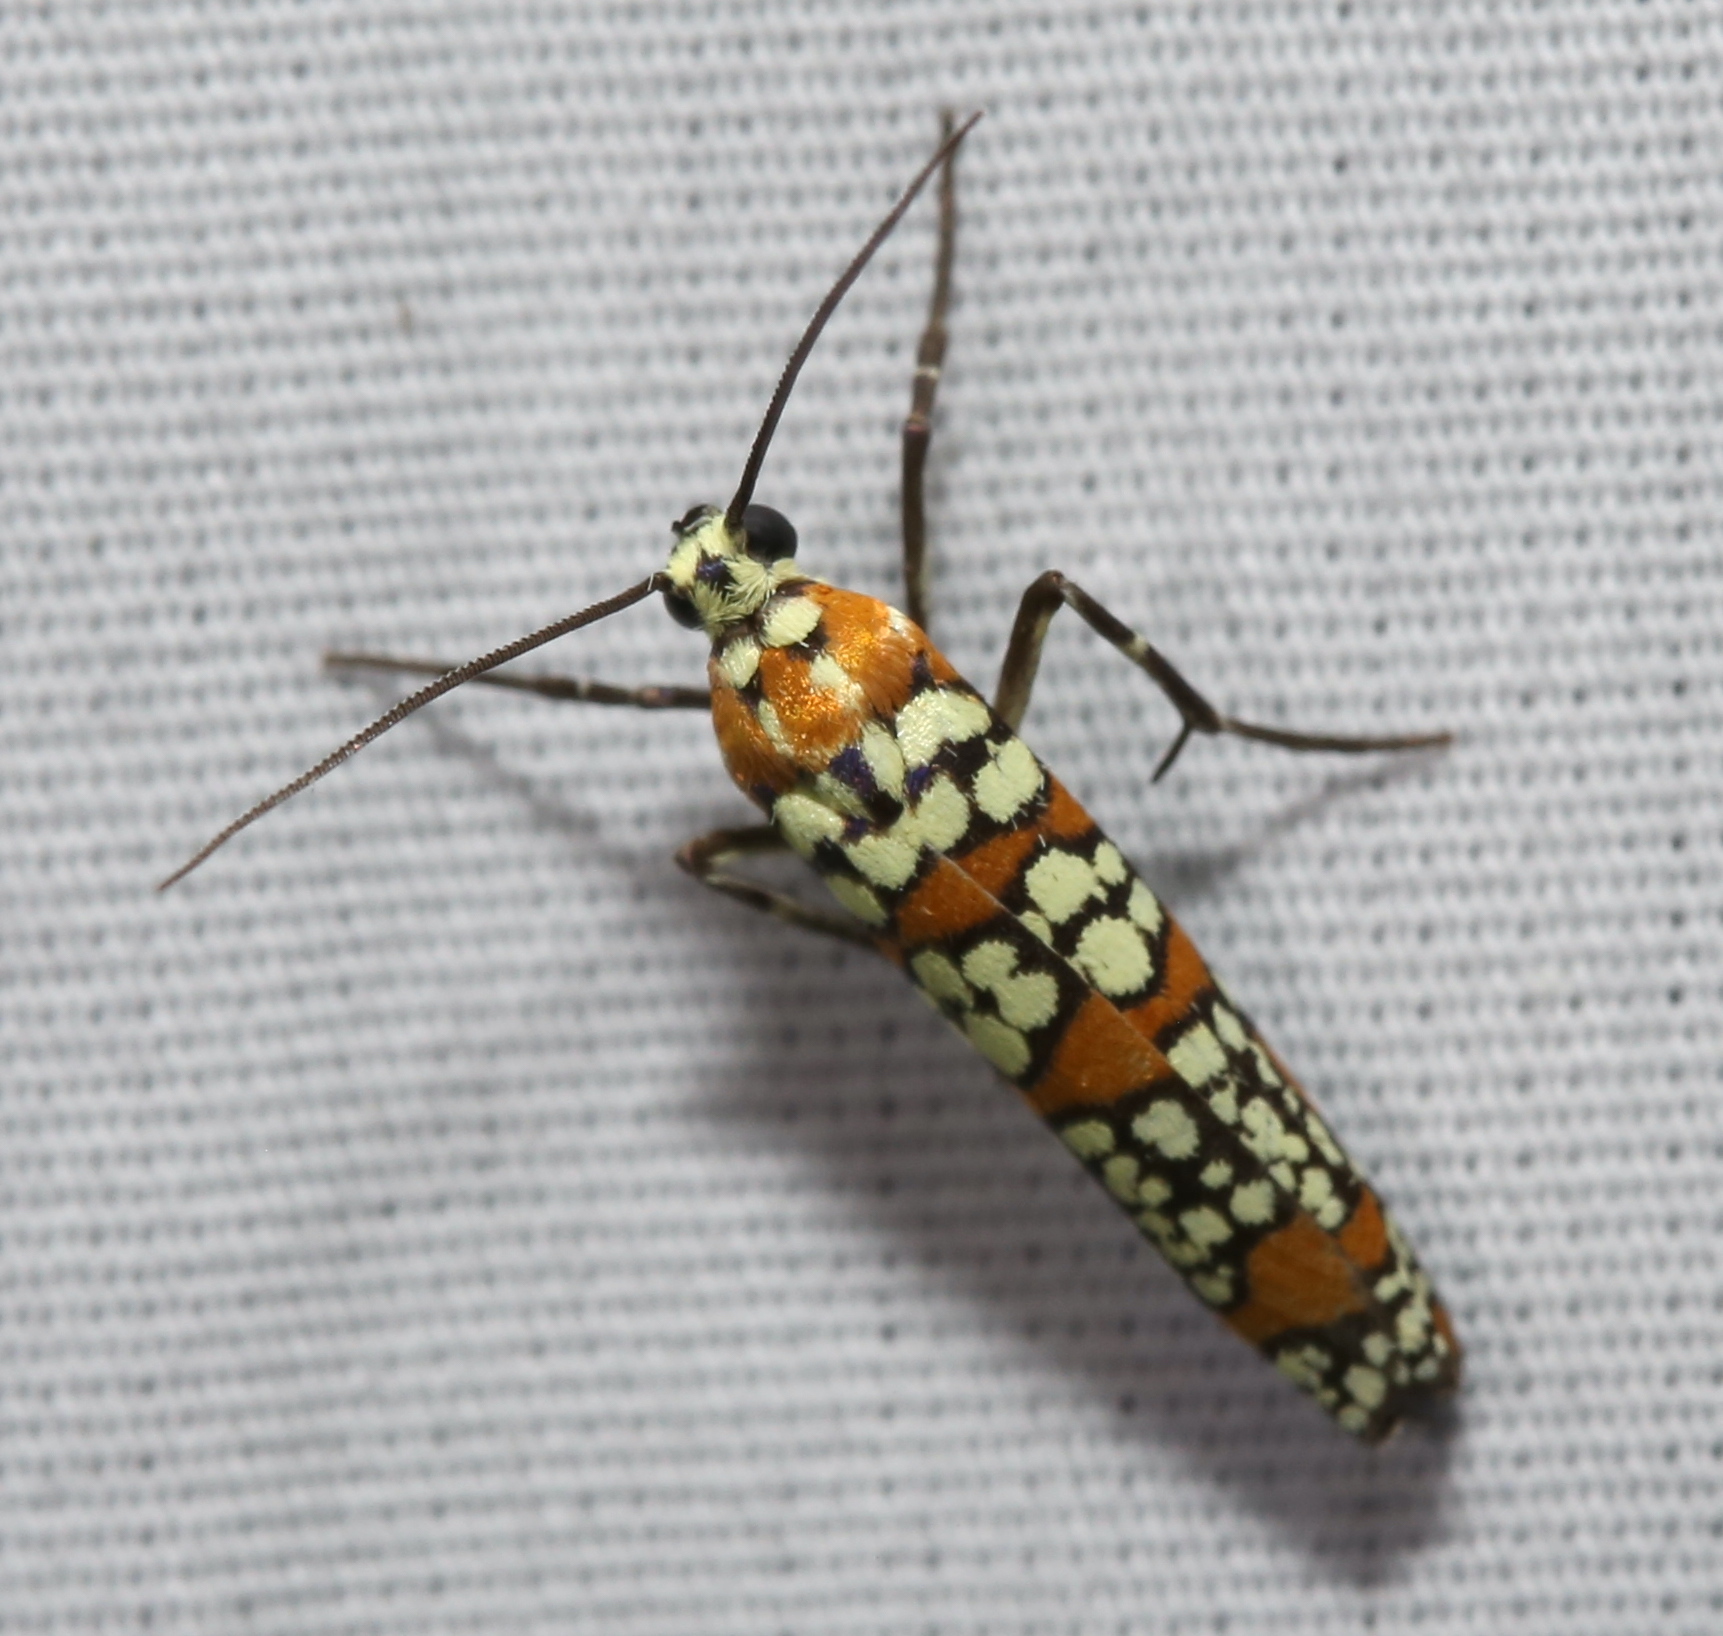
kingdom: Animalia
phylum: Arthropoda
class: Insecta
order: Lepidoptera
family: Attevidae
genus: Atteva
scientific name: Atteva punctella
